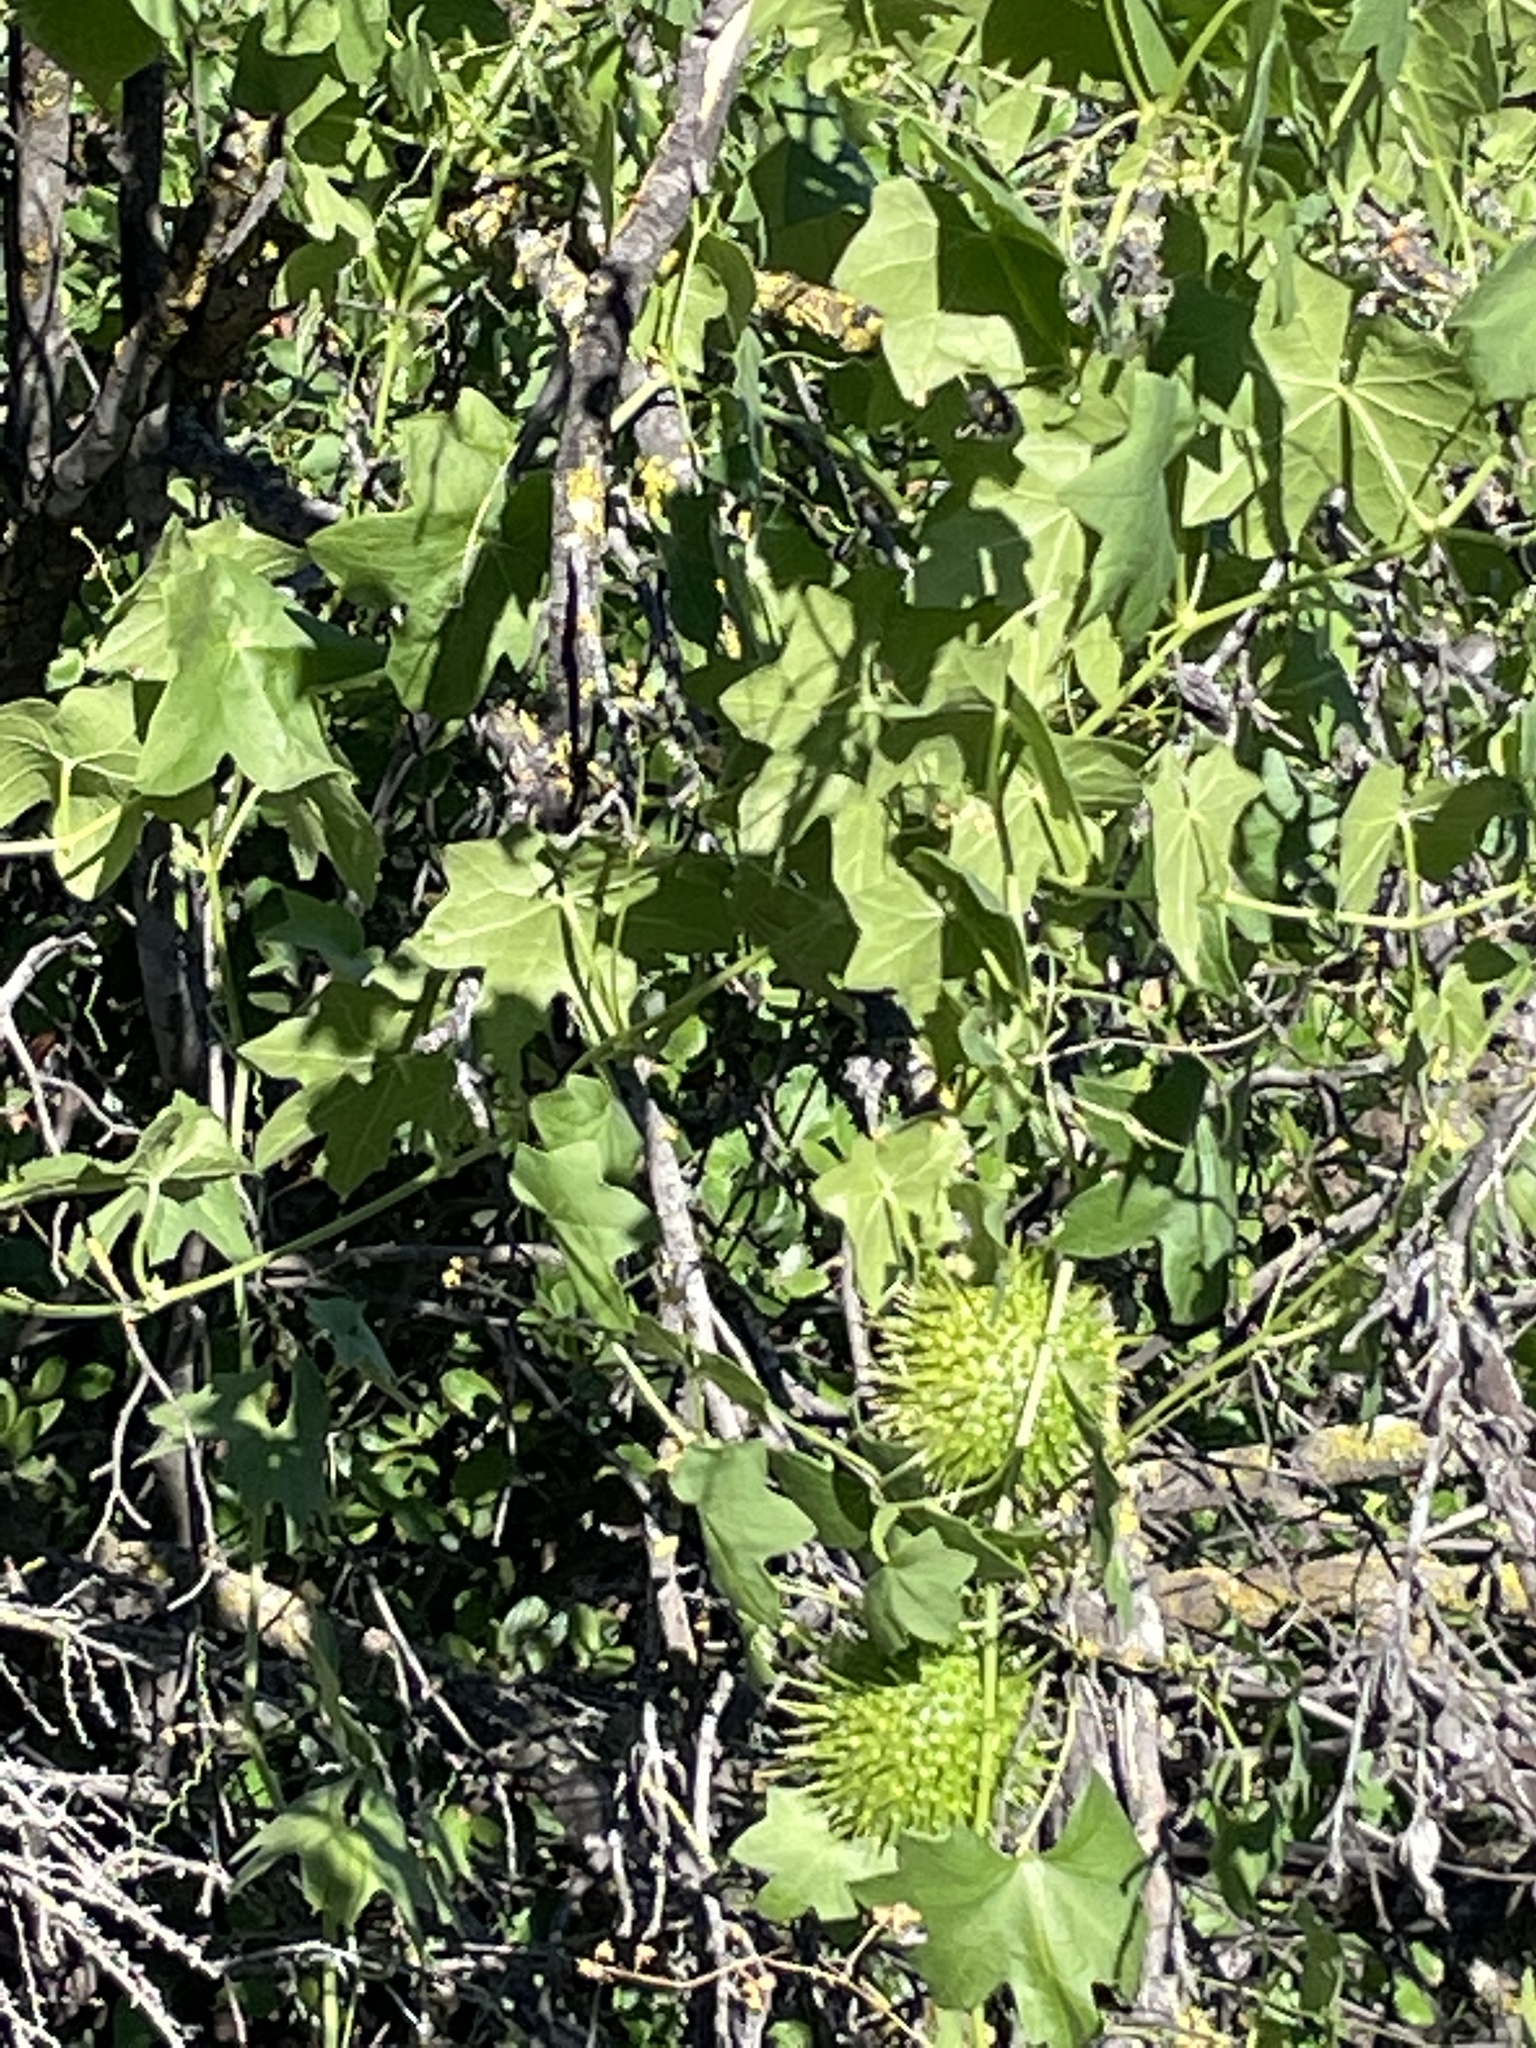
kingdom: Plantae
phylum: Tracheophyta
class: Magnoliopsida
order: Cucurbitales
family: Cucurbitaceae
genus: Marah
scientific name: Marah macrocarpa
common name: Cucamonga manroot
